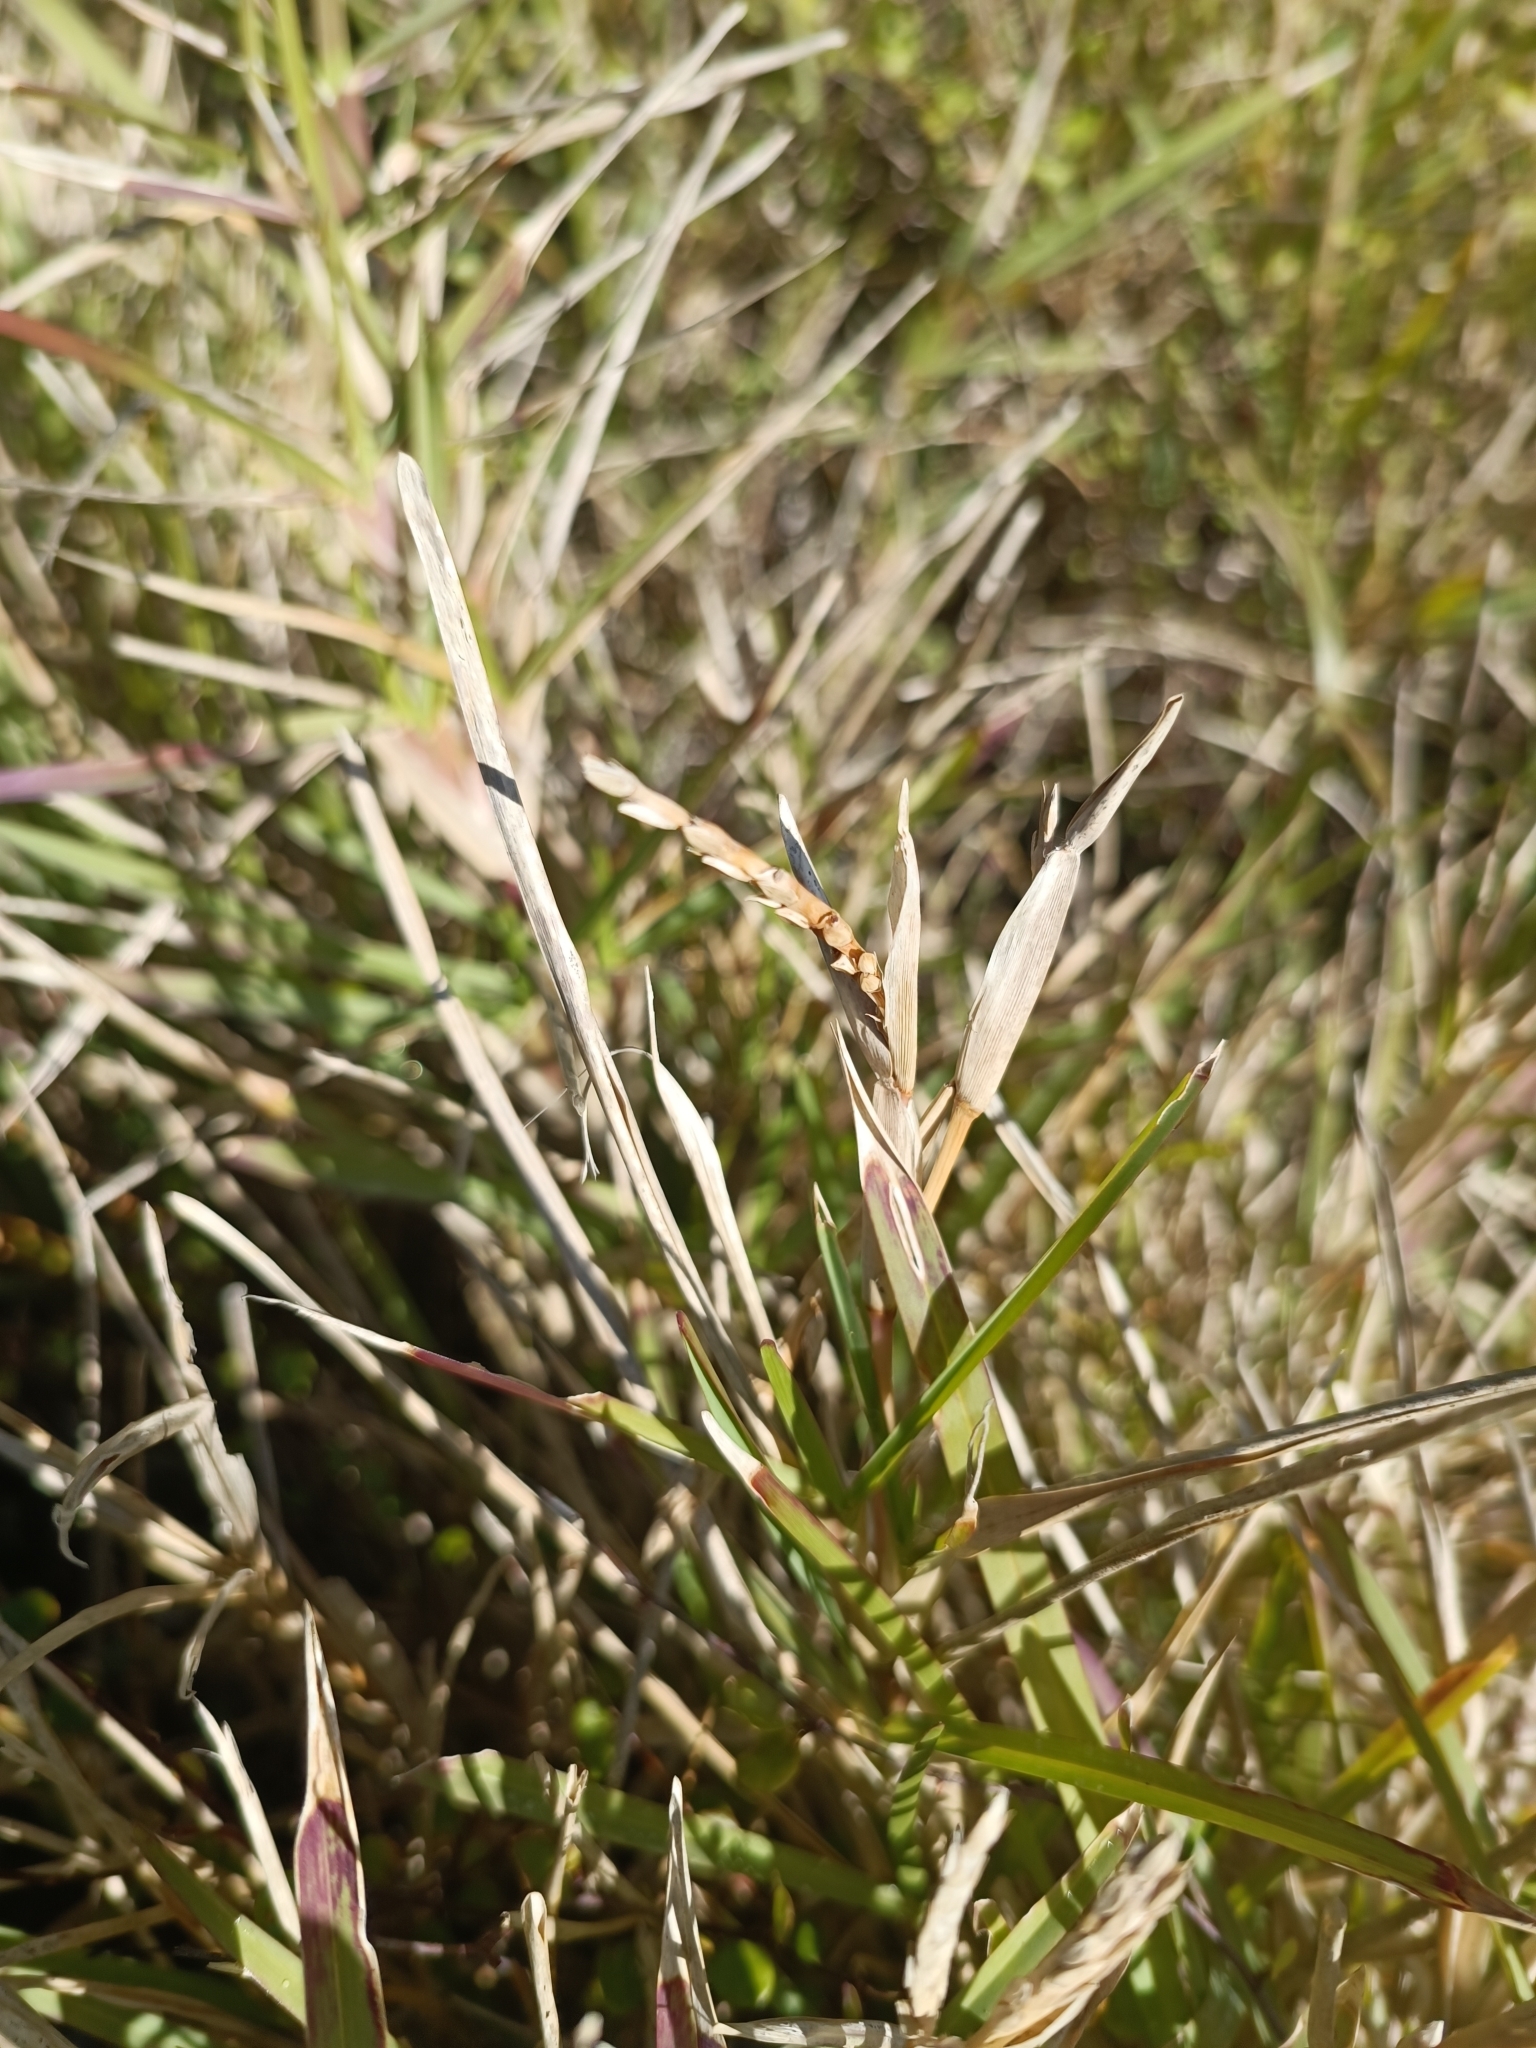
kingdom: Plantae
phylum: Tracheophyta
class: Liliopsida
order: Poales
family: Poaceae
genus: Stenotaphrum
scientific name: Stenotaphrum secundatum
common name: St. augustine grass
